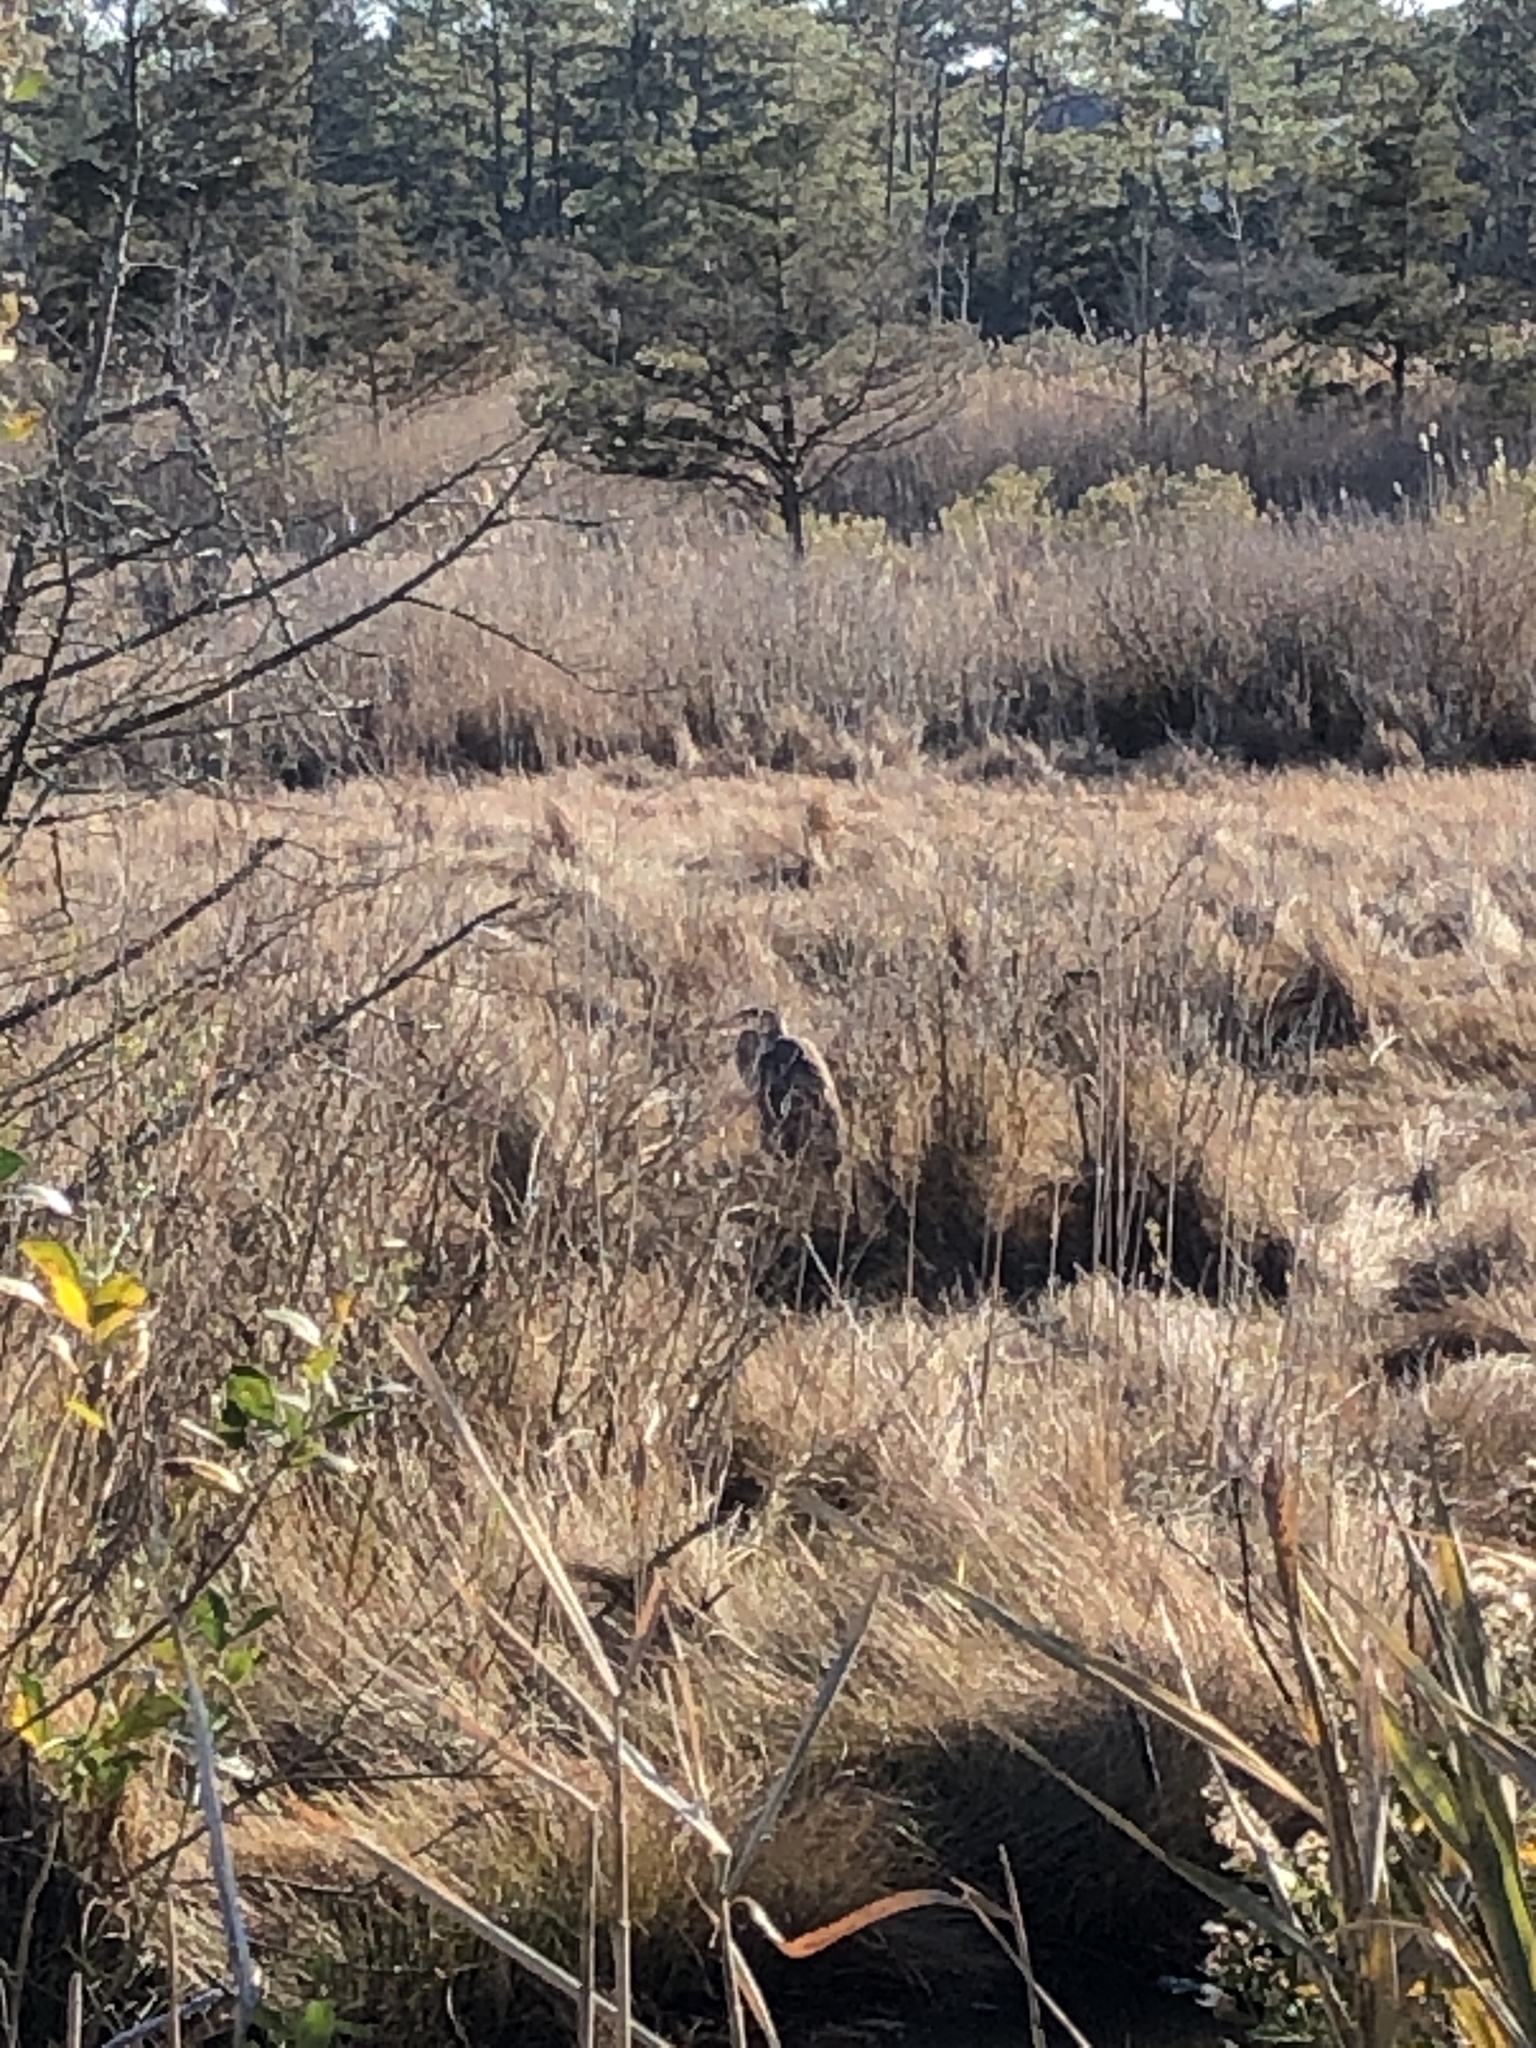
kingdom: Animalia
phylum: Chordata
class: Aves
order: Pelecaniformes
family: Ardeidae
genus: Ardea
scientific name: Ardea herodias
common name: Great blue heron
